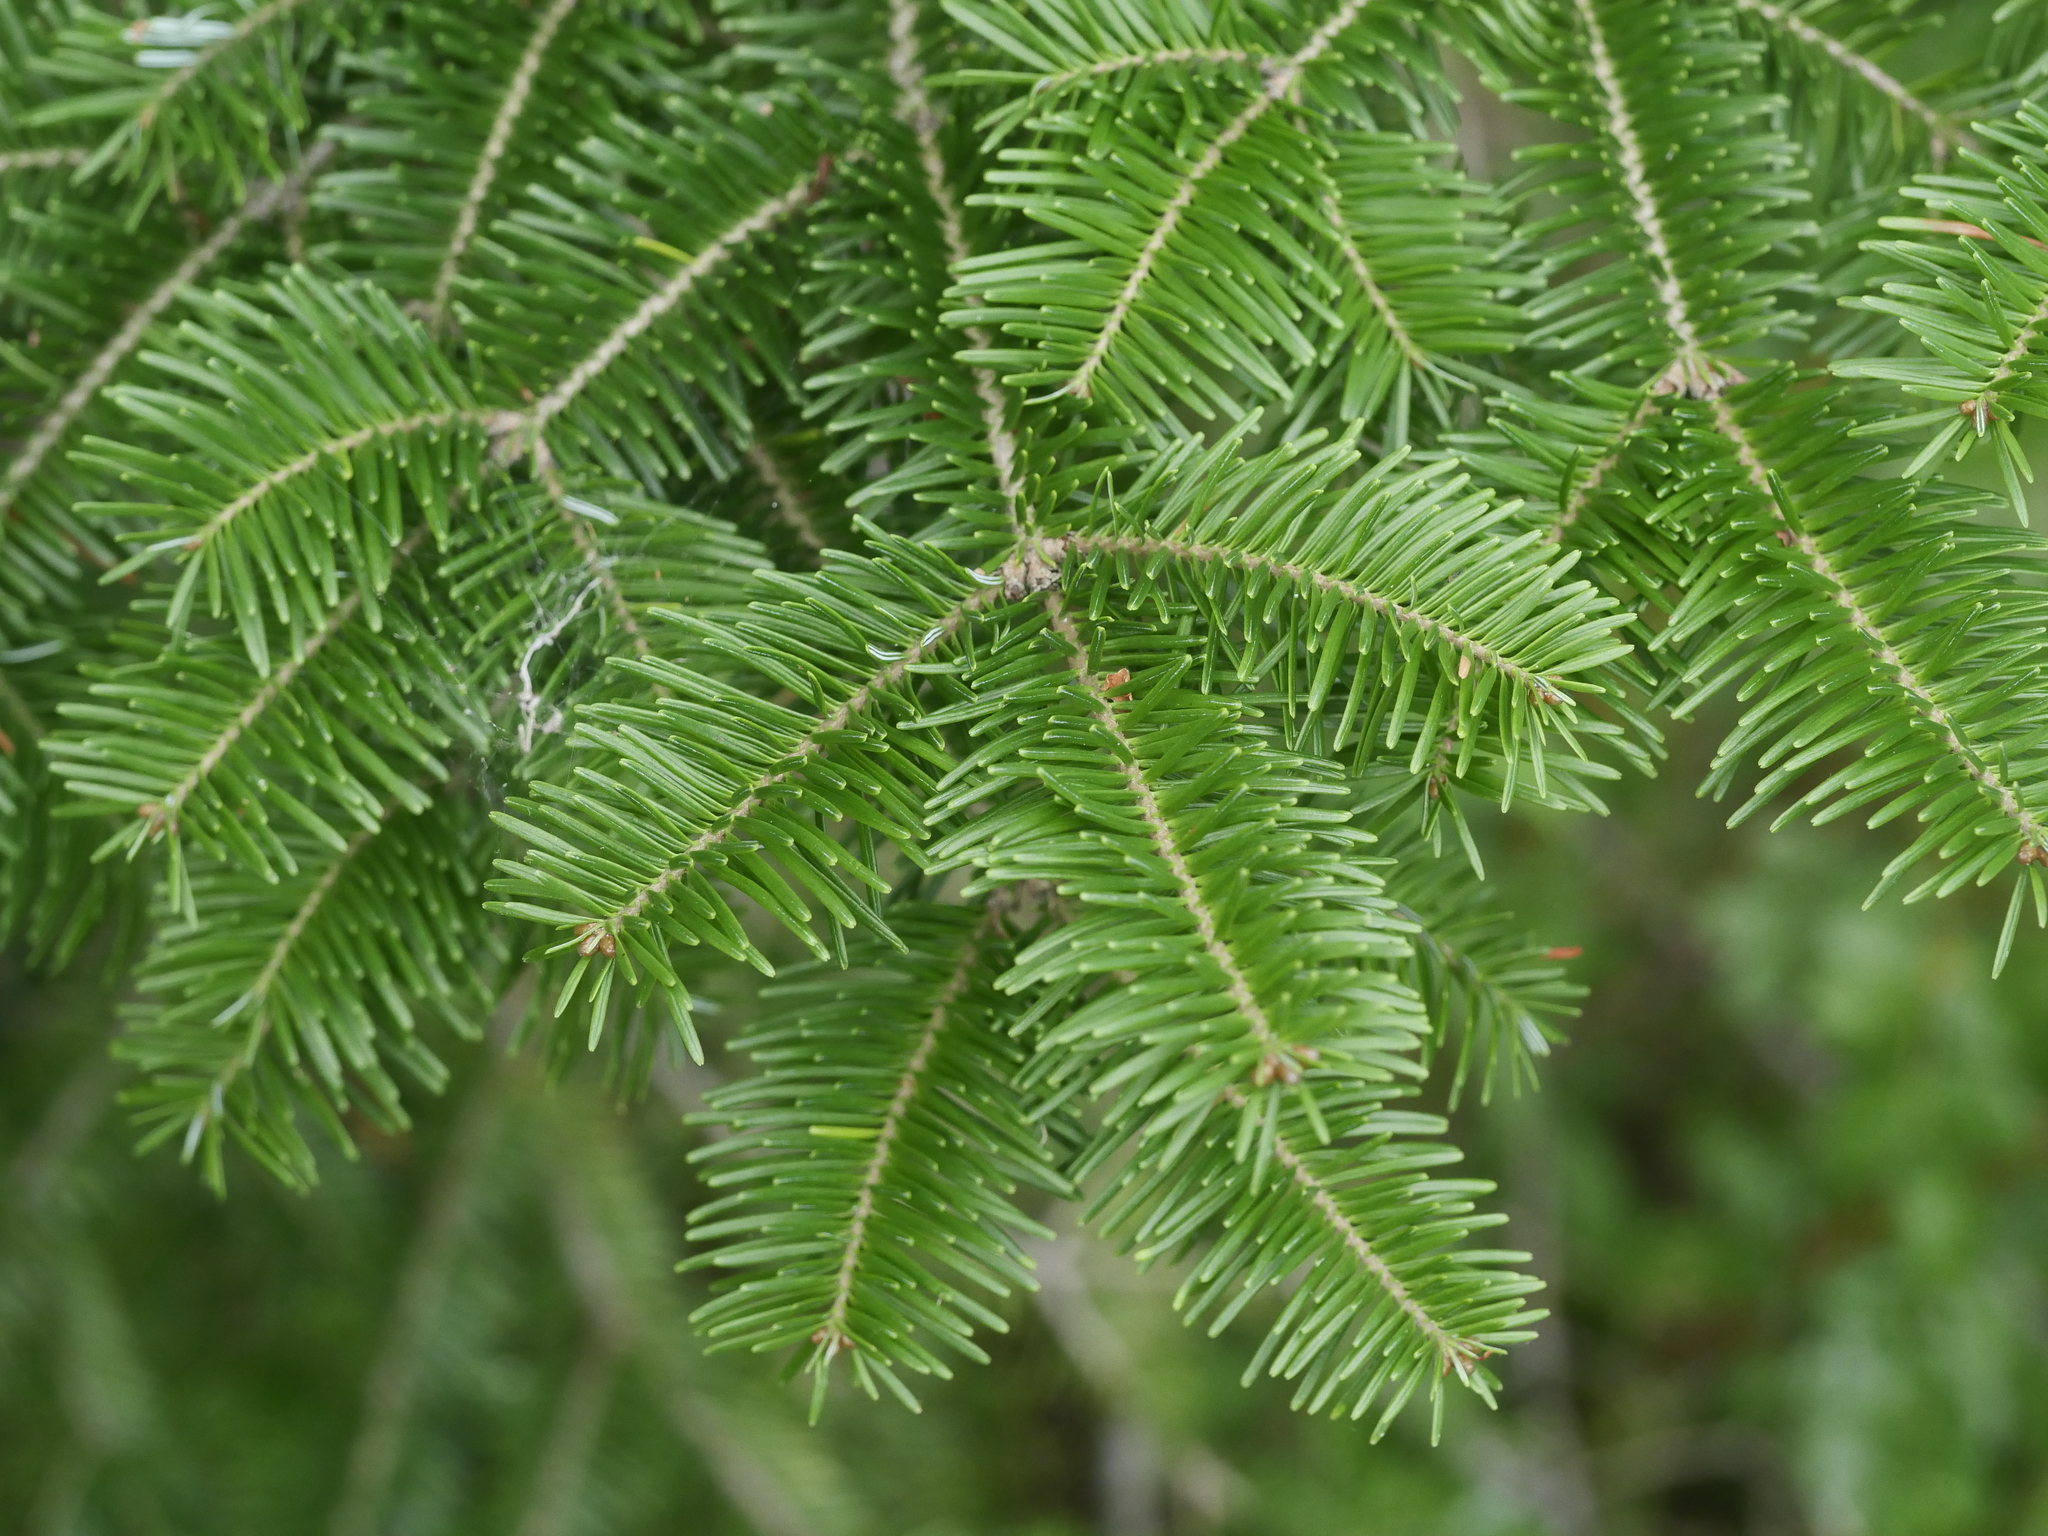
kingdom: Plantae
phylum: Tracheophyta
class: Pinopsida
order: Pinales
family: Pinaceae
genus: Abies
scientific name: Abies balsamea
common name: Balsam fir
